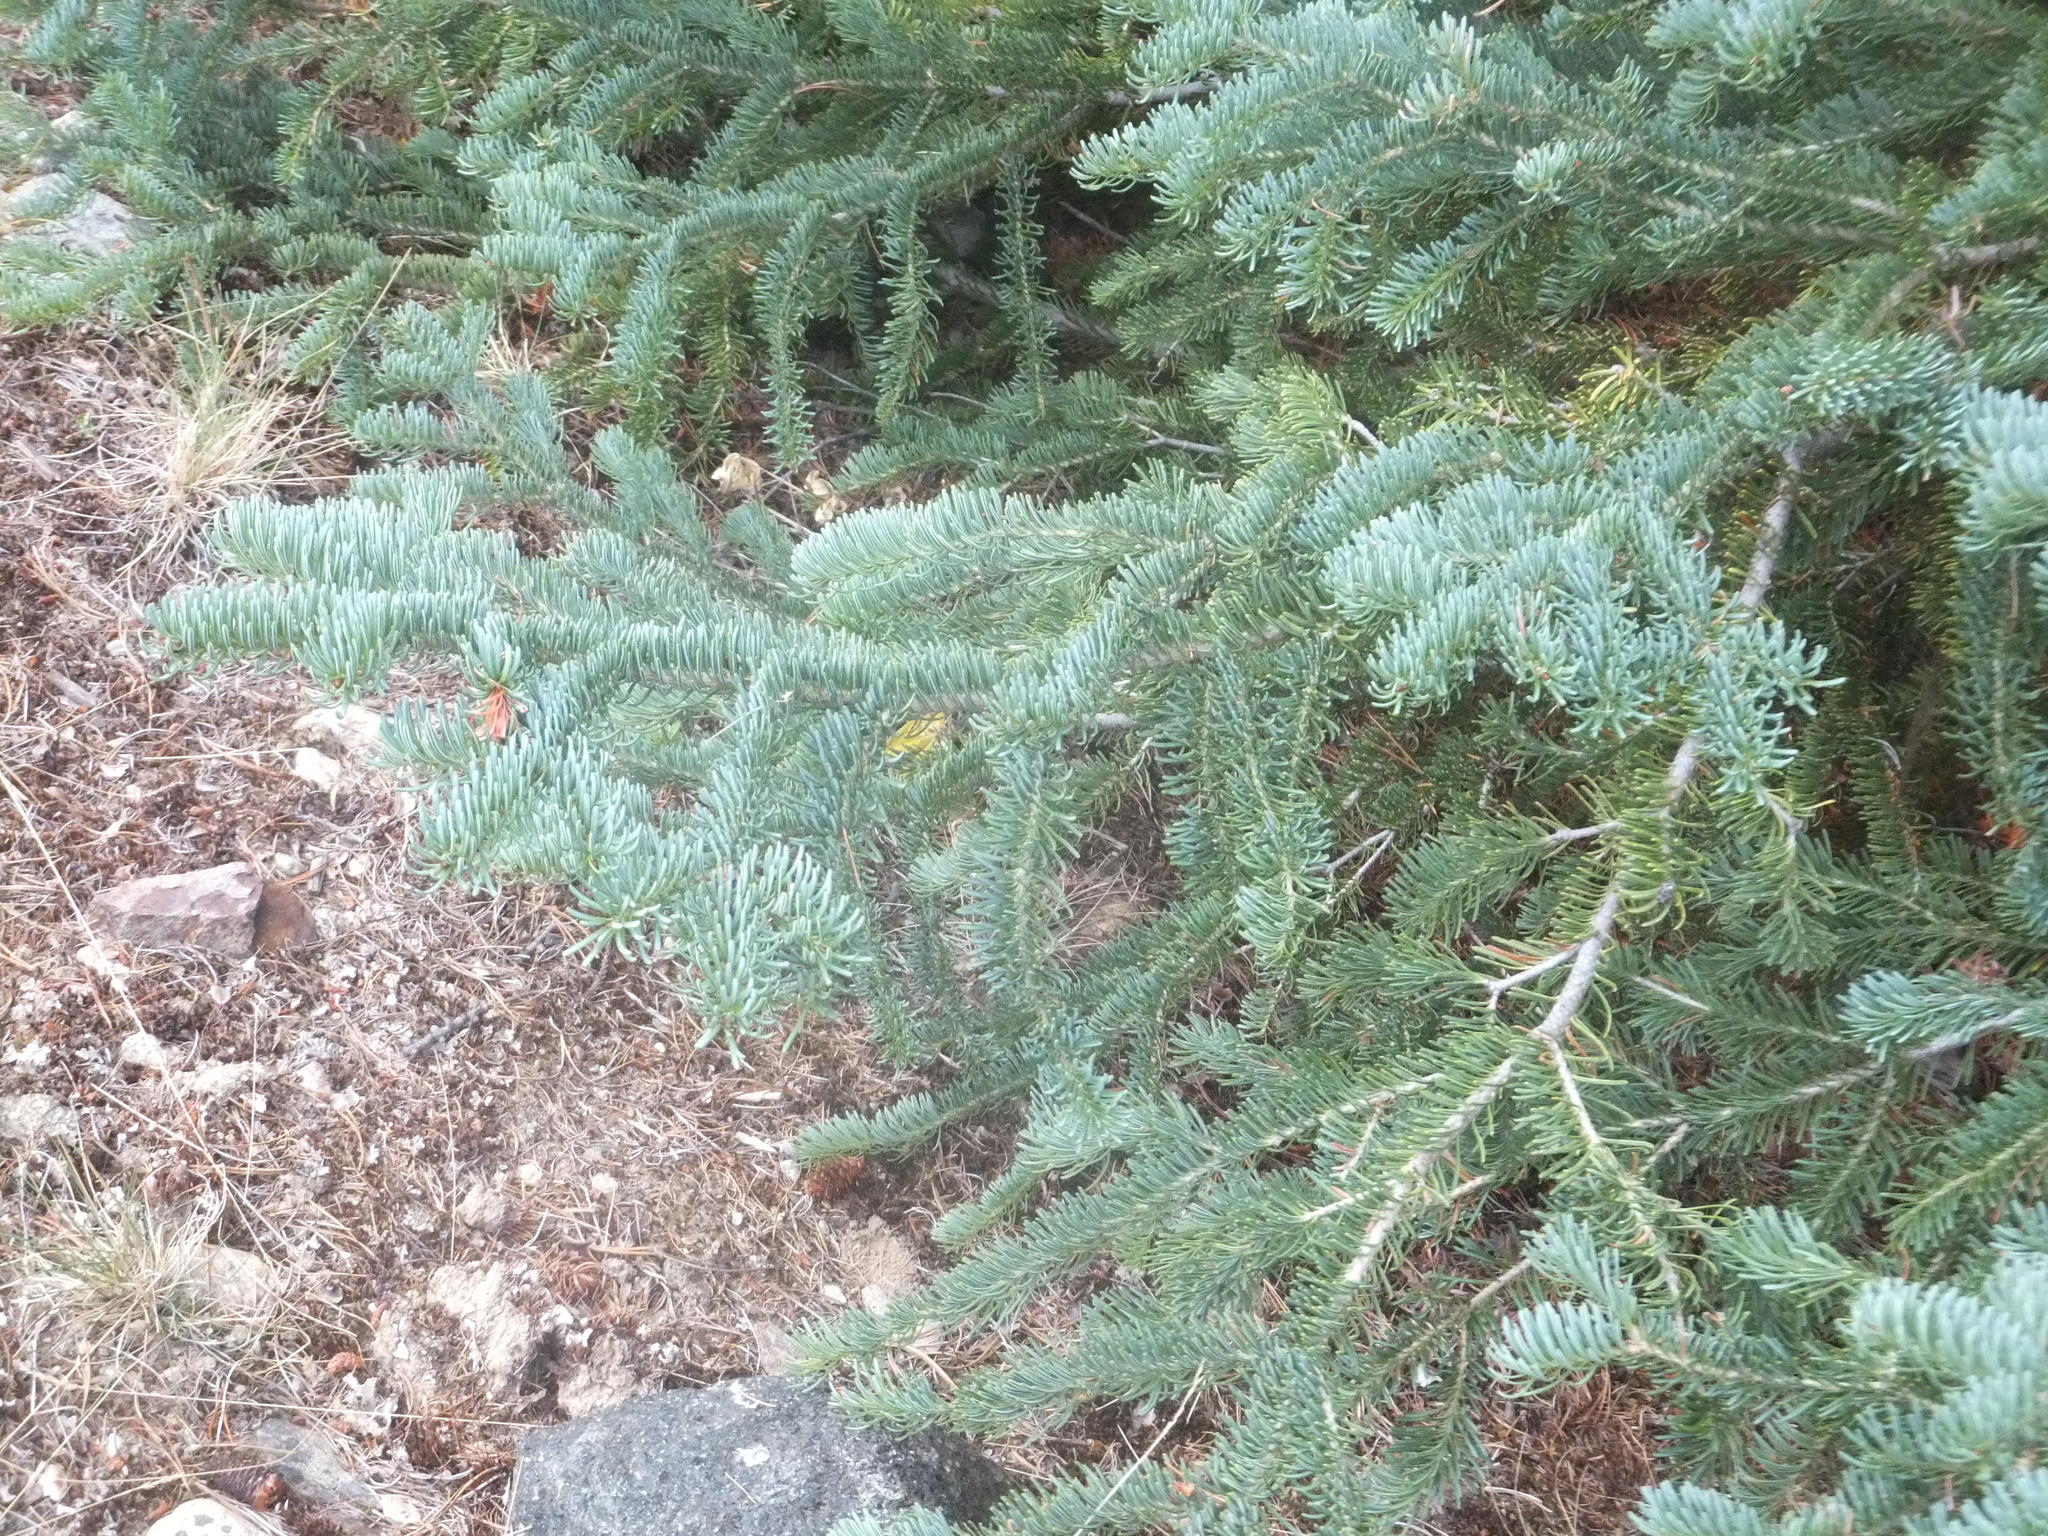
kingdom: Plantae
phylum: Tracheophyta
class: Pinopsida
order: Pinales
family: Pinaceae
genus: Abies
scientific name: Abies lasiocarpa
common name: Subalpine fir
